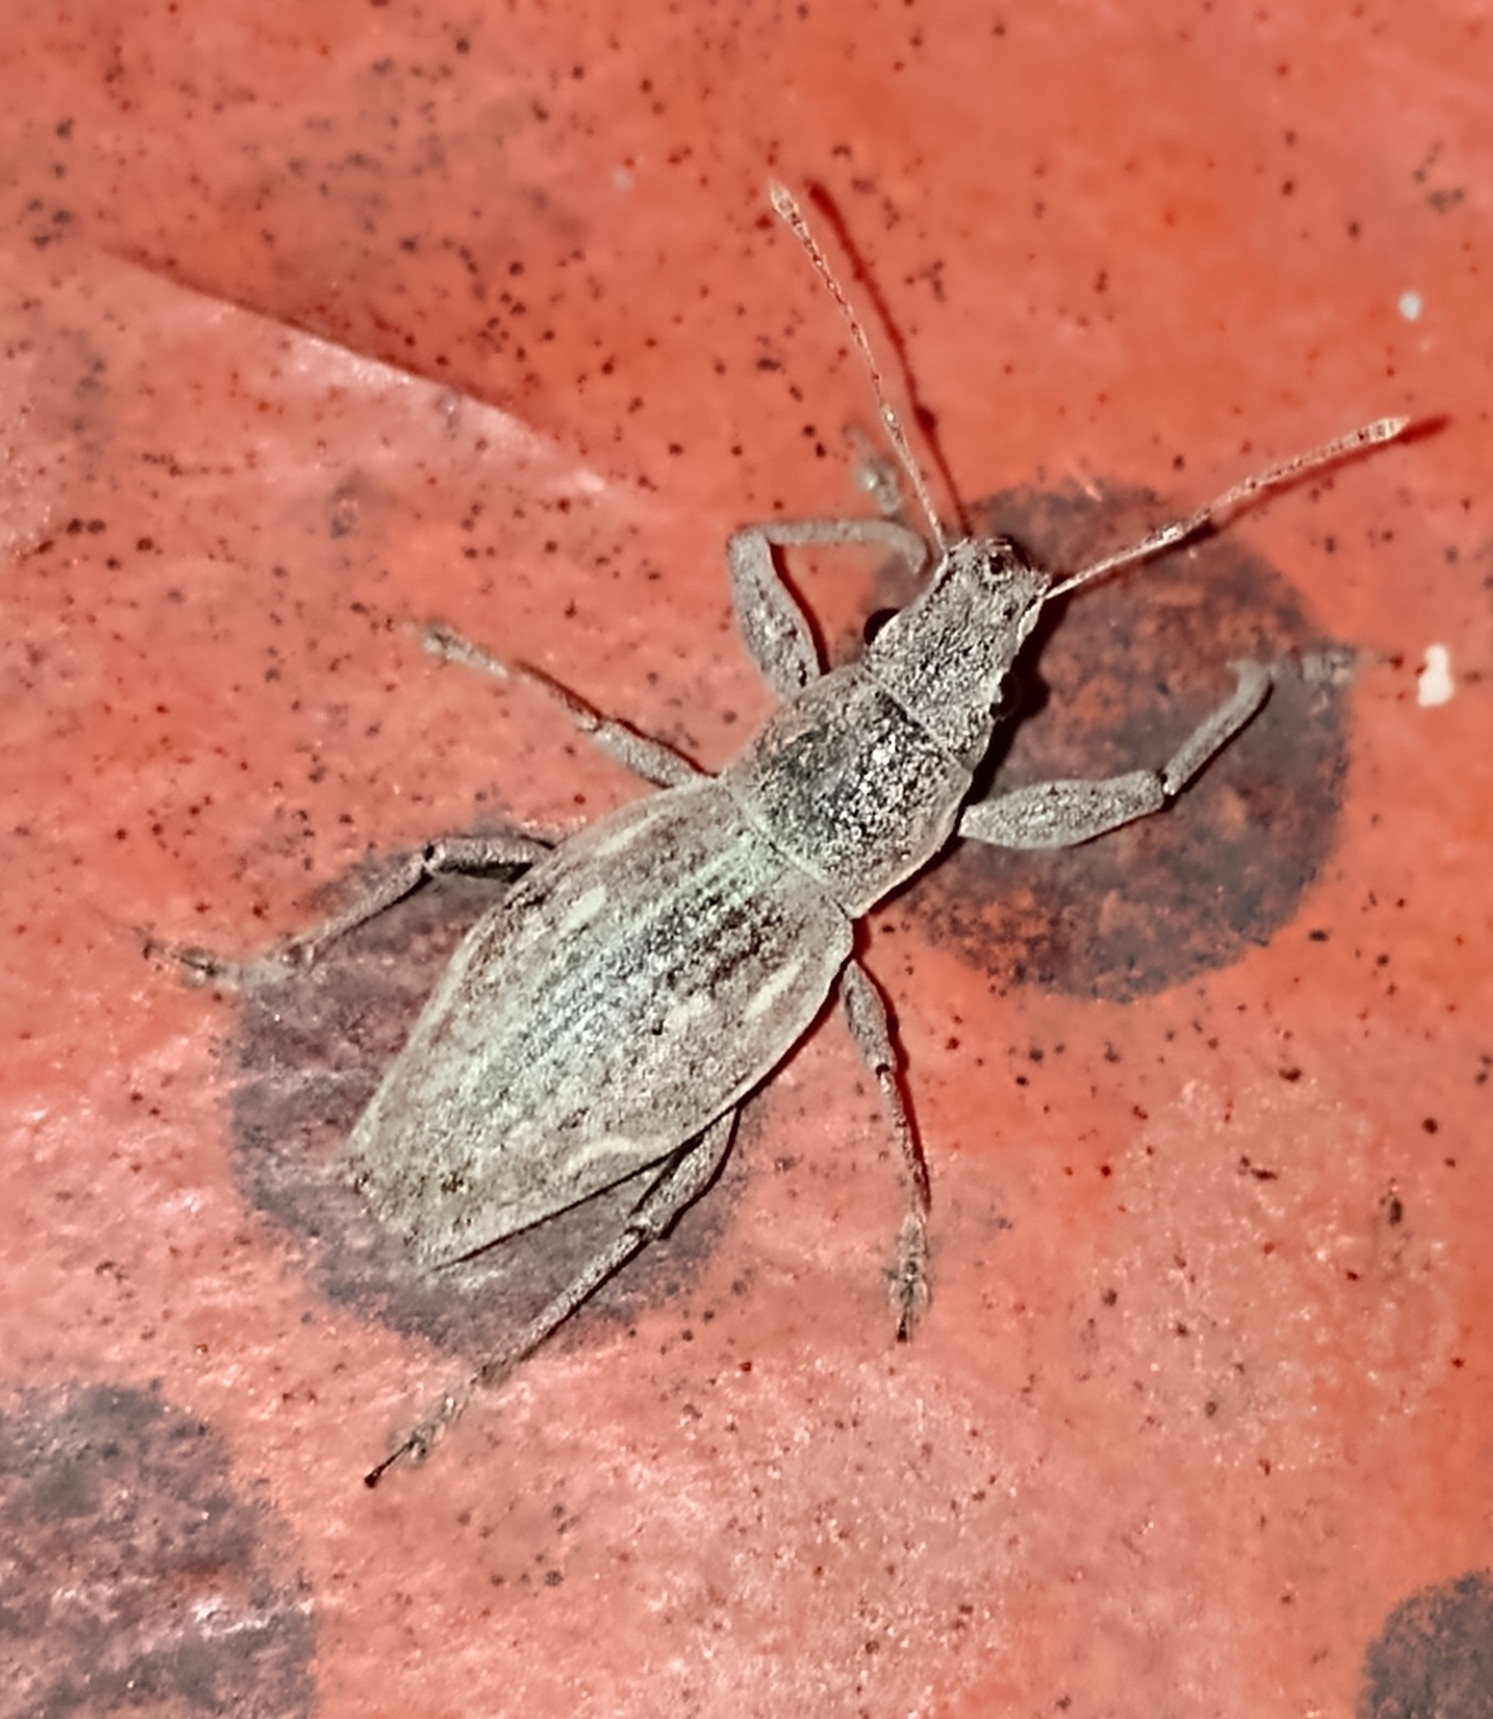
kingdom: Animalia
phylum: Arthropoda
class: Insecta
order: Coleoptera
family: Curculionidae
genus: Naupactus
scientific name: Naupactus xanthographus
